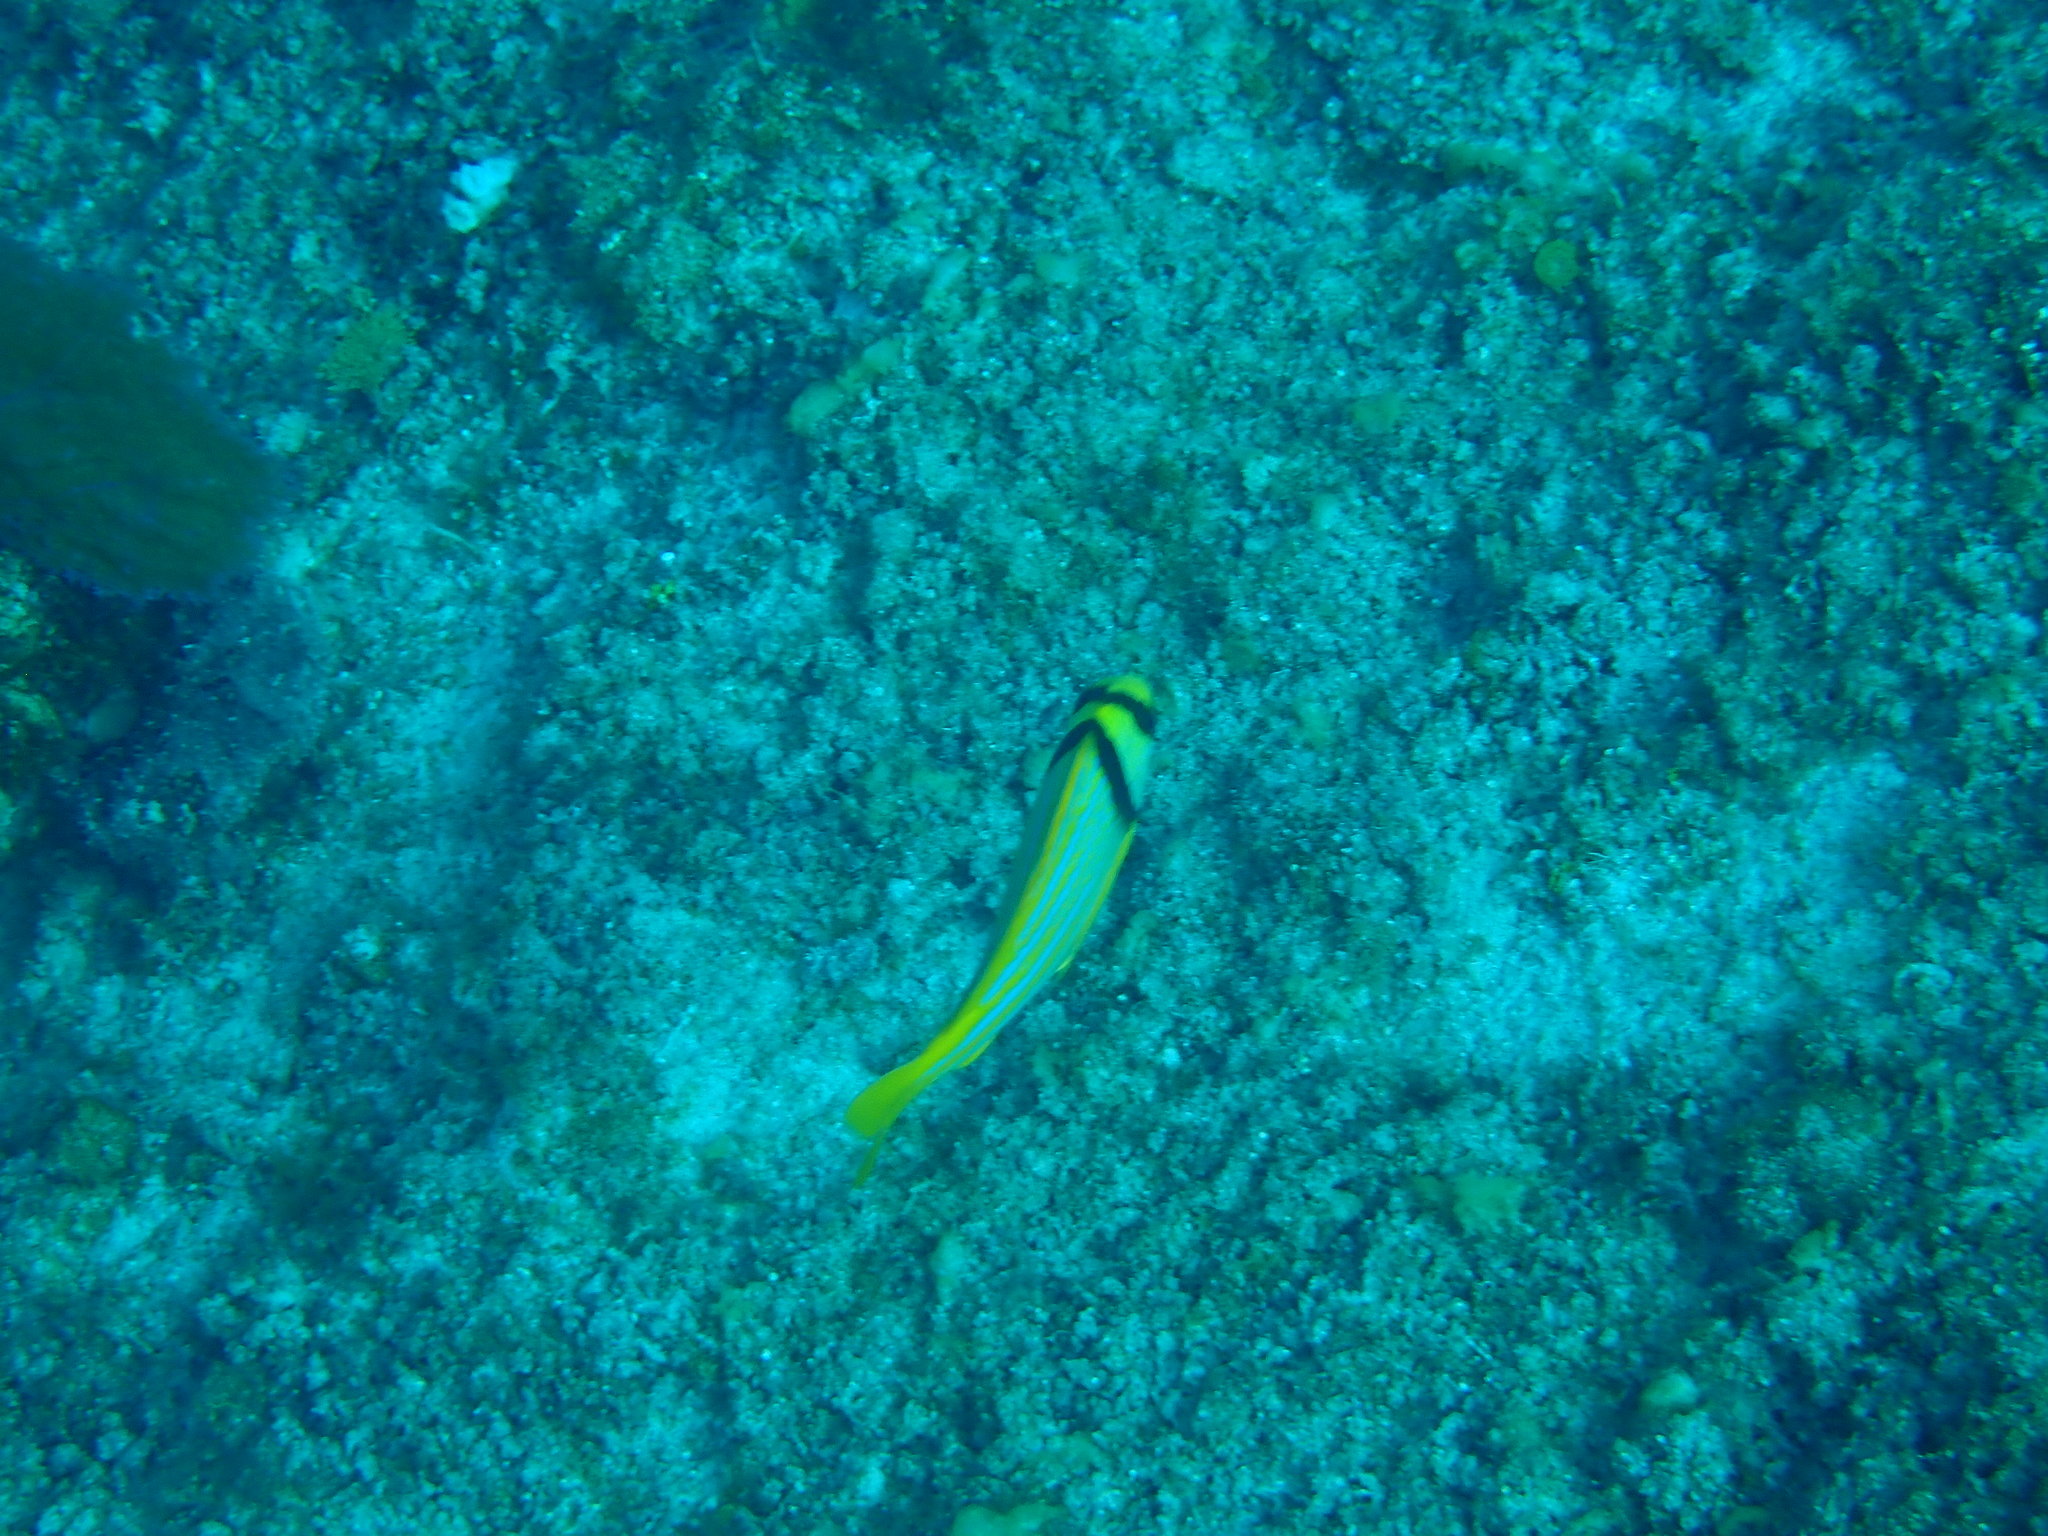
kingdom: Animalia
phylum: Chordata
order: Perciformes
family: Haemulidae
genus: Anisotremus
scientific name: Anisotremus virginicus
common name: Porkfish
